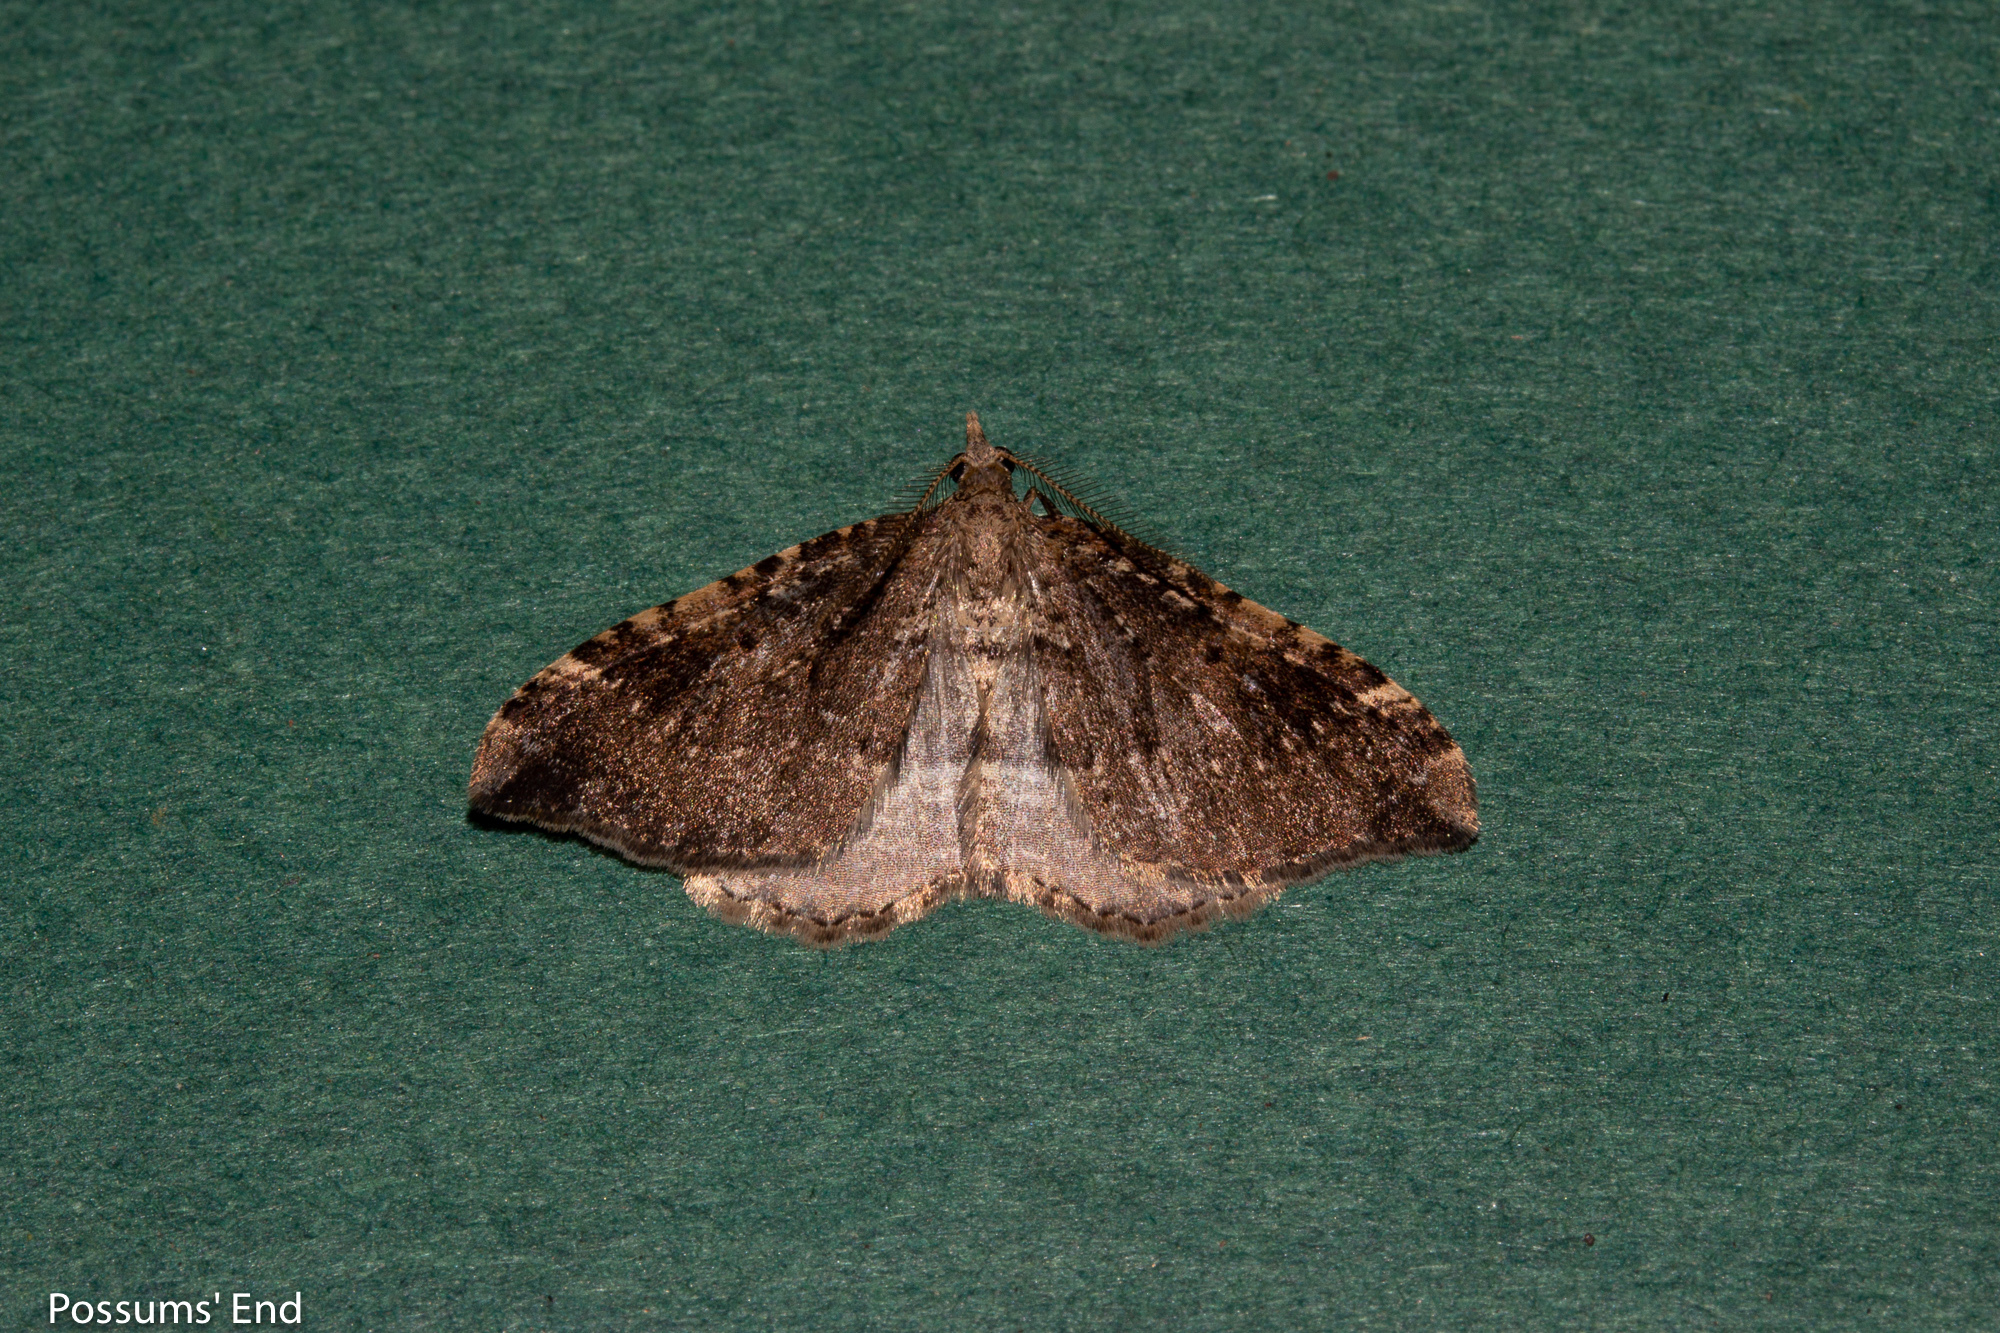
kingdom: Animalia
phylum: Arthropoda
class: Insecta
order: Lepidoptera
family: Geometridae
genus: Homodotis
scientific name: Homodotis megaspilata
